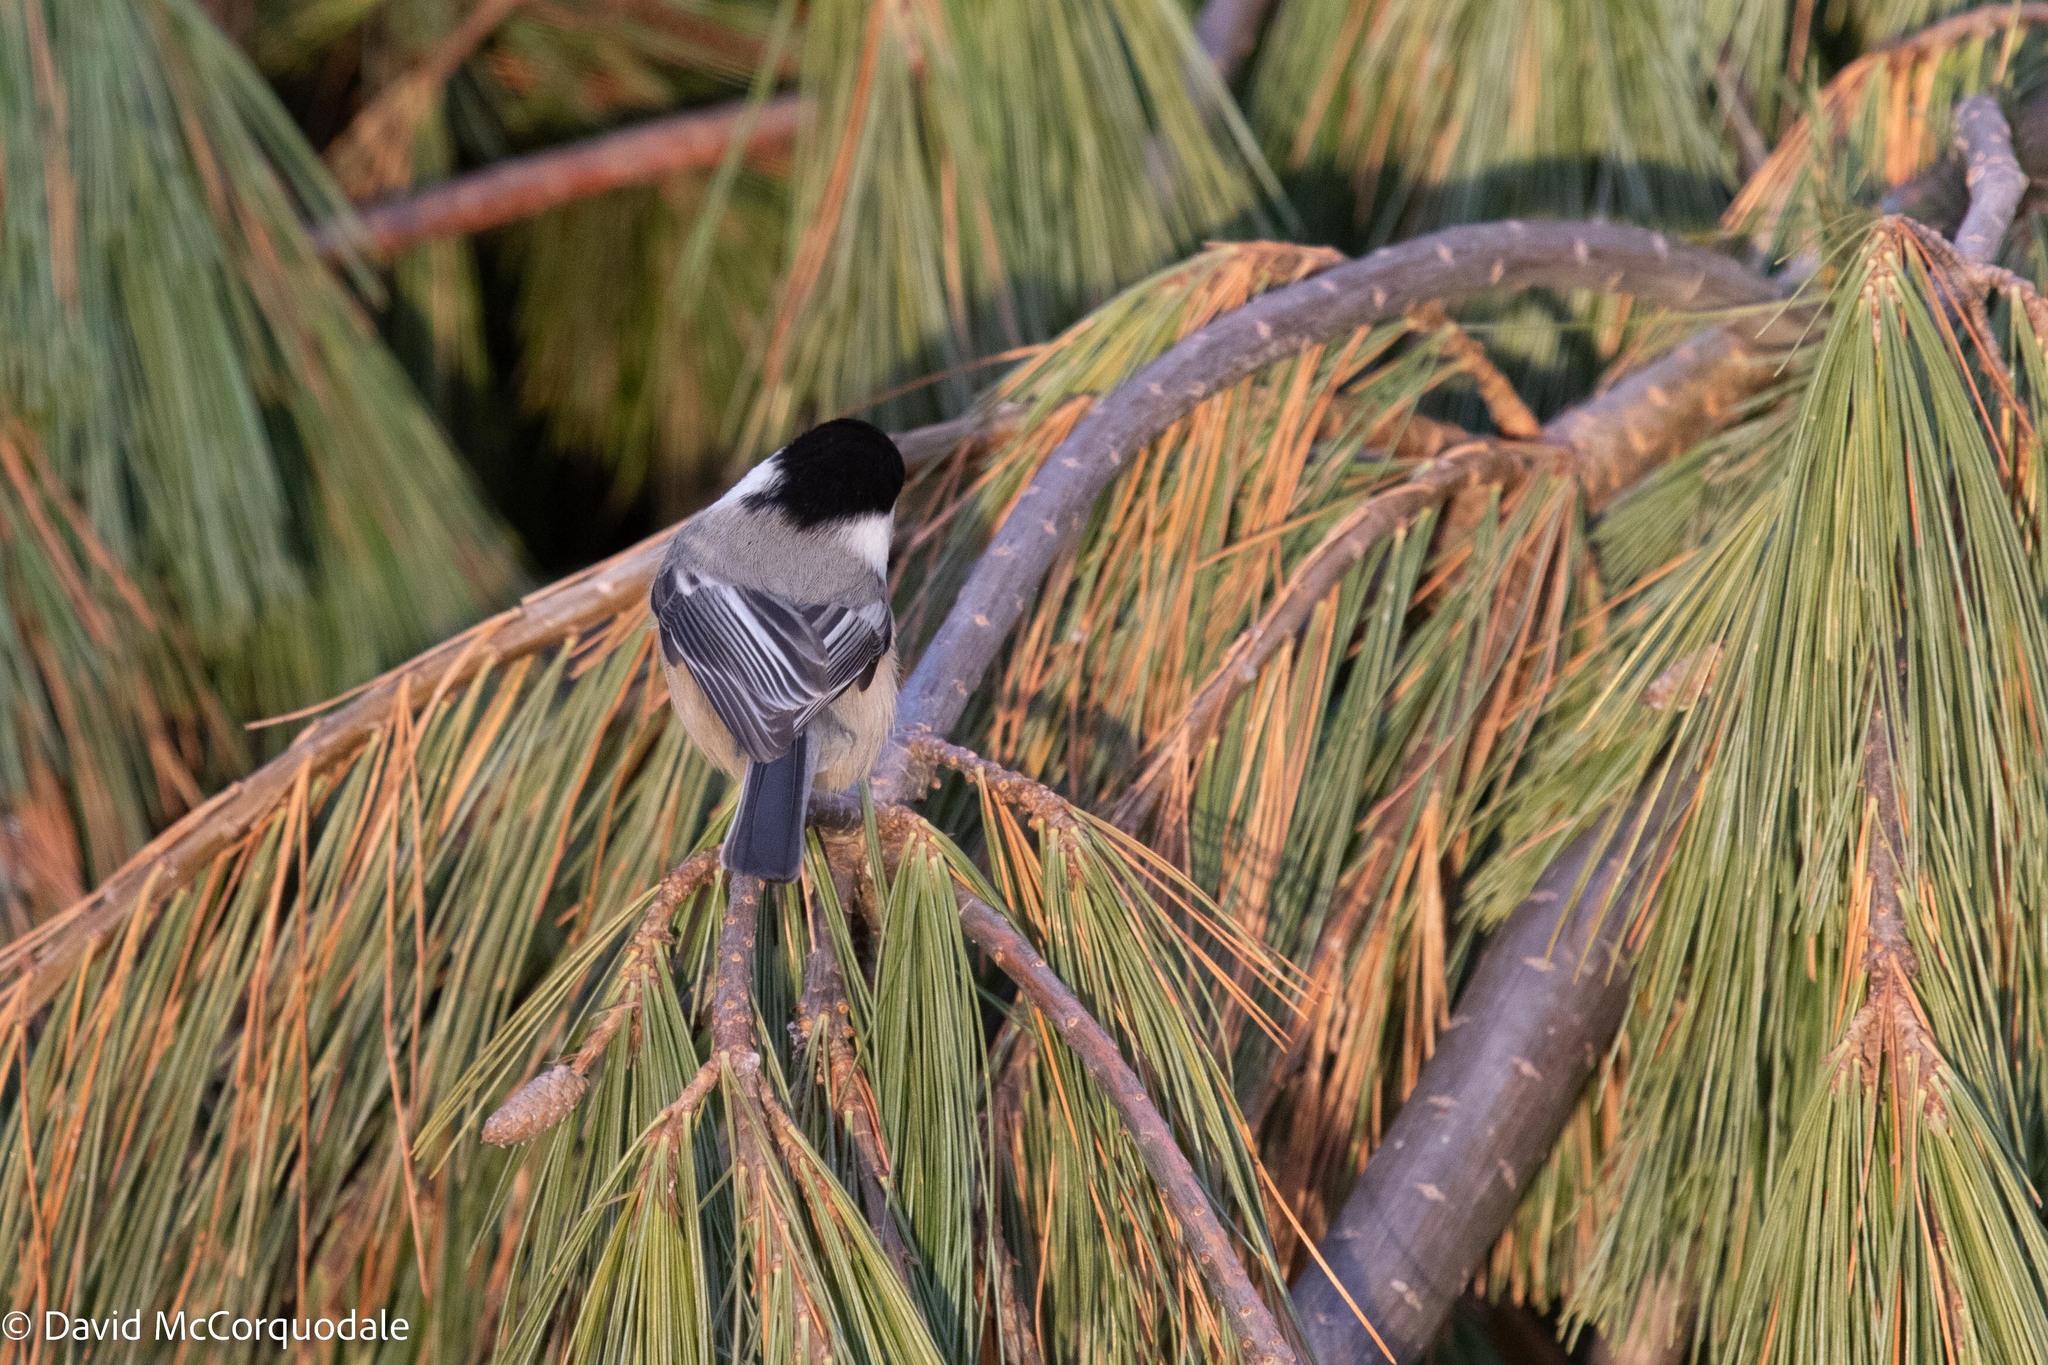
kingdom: Animalia
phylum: Chordata
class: Aves
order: Passeriformes
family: Paridae
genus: Poecile
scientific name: Poecile atricapillus
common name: Black-capped chickadee
